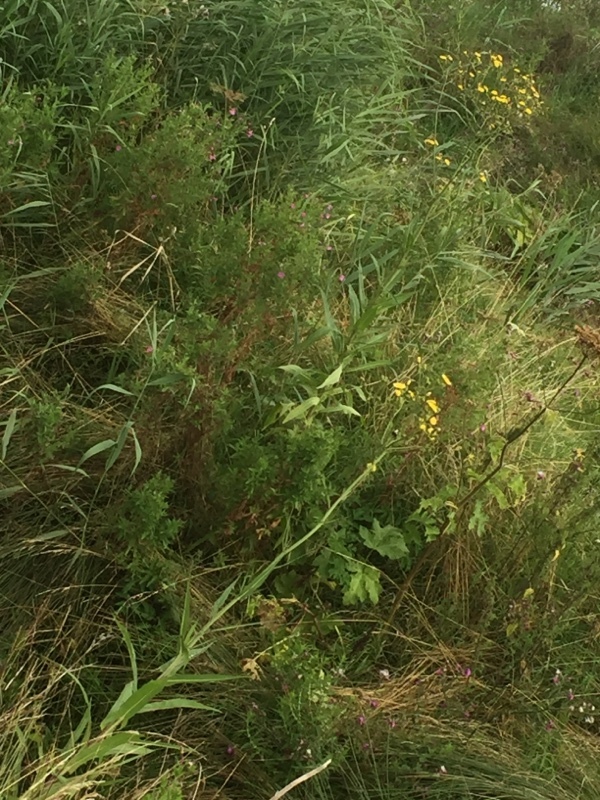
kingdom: Plantae
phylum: Tracheophyta
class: Magnoliopsida
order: Asterales
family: Asteraceae
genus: Sonchus
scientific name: Sonchus palustris
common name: Marsh sow-thistle
